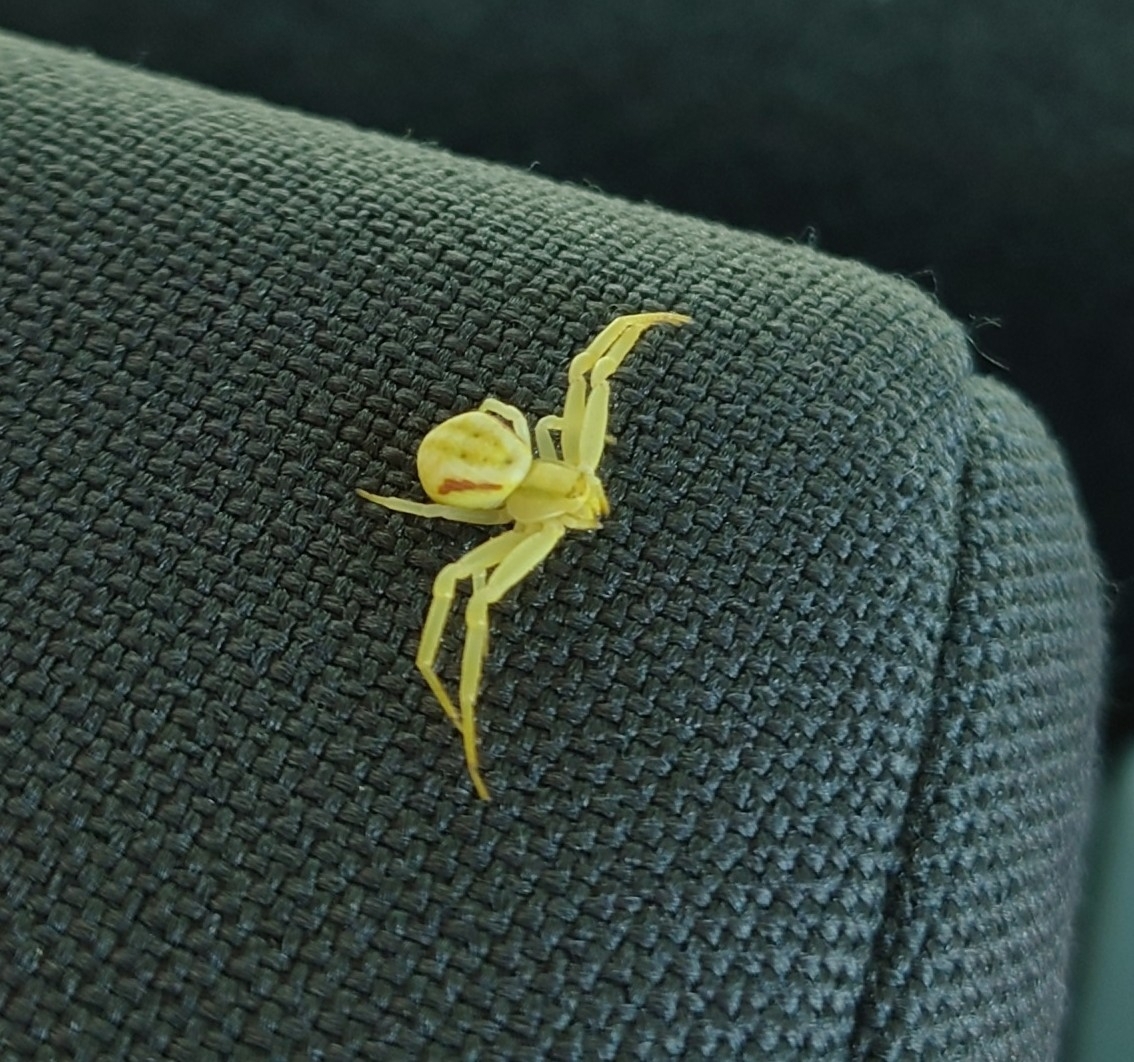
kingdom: Animalia
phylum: Arthropoda
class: Arachnida
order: Araneae
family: Thomisidae
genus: Misumena
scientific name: Misumena vatia
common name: Goldenrod crab spider
